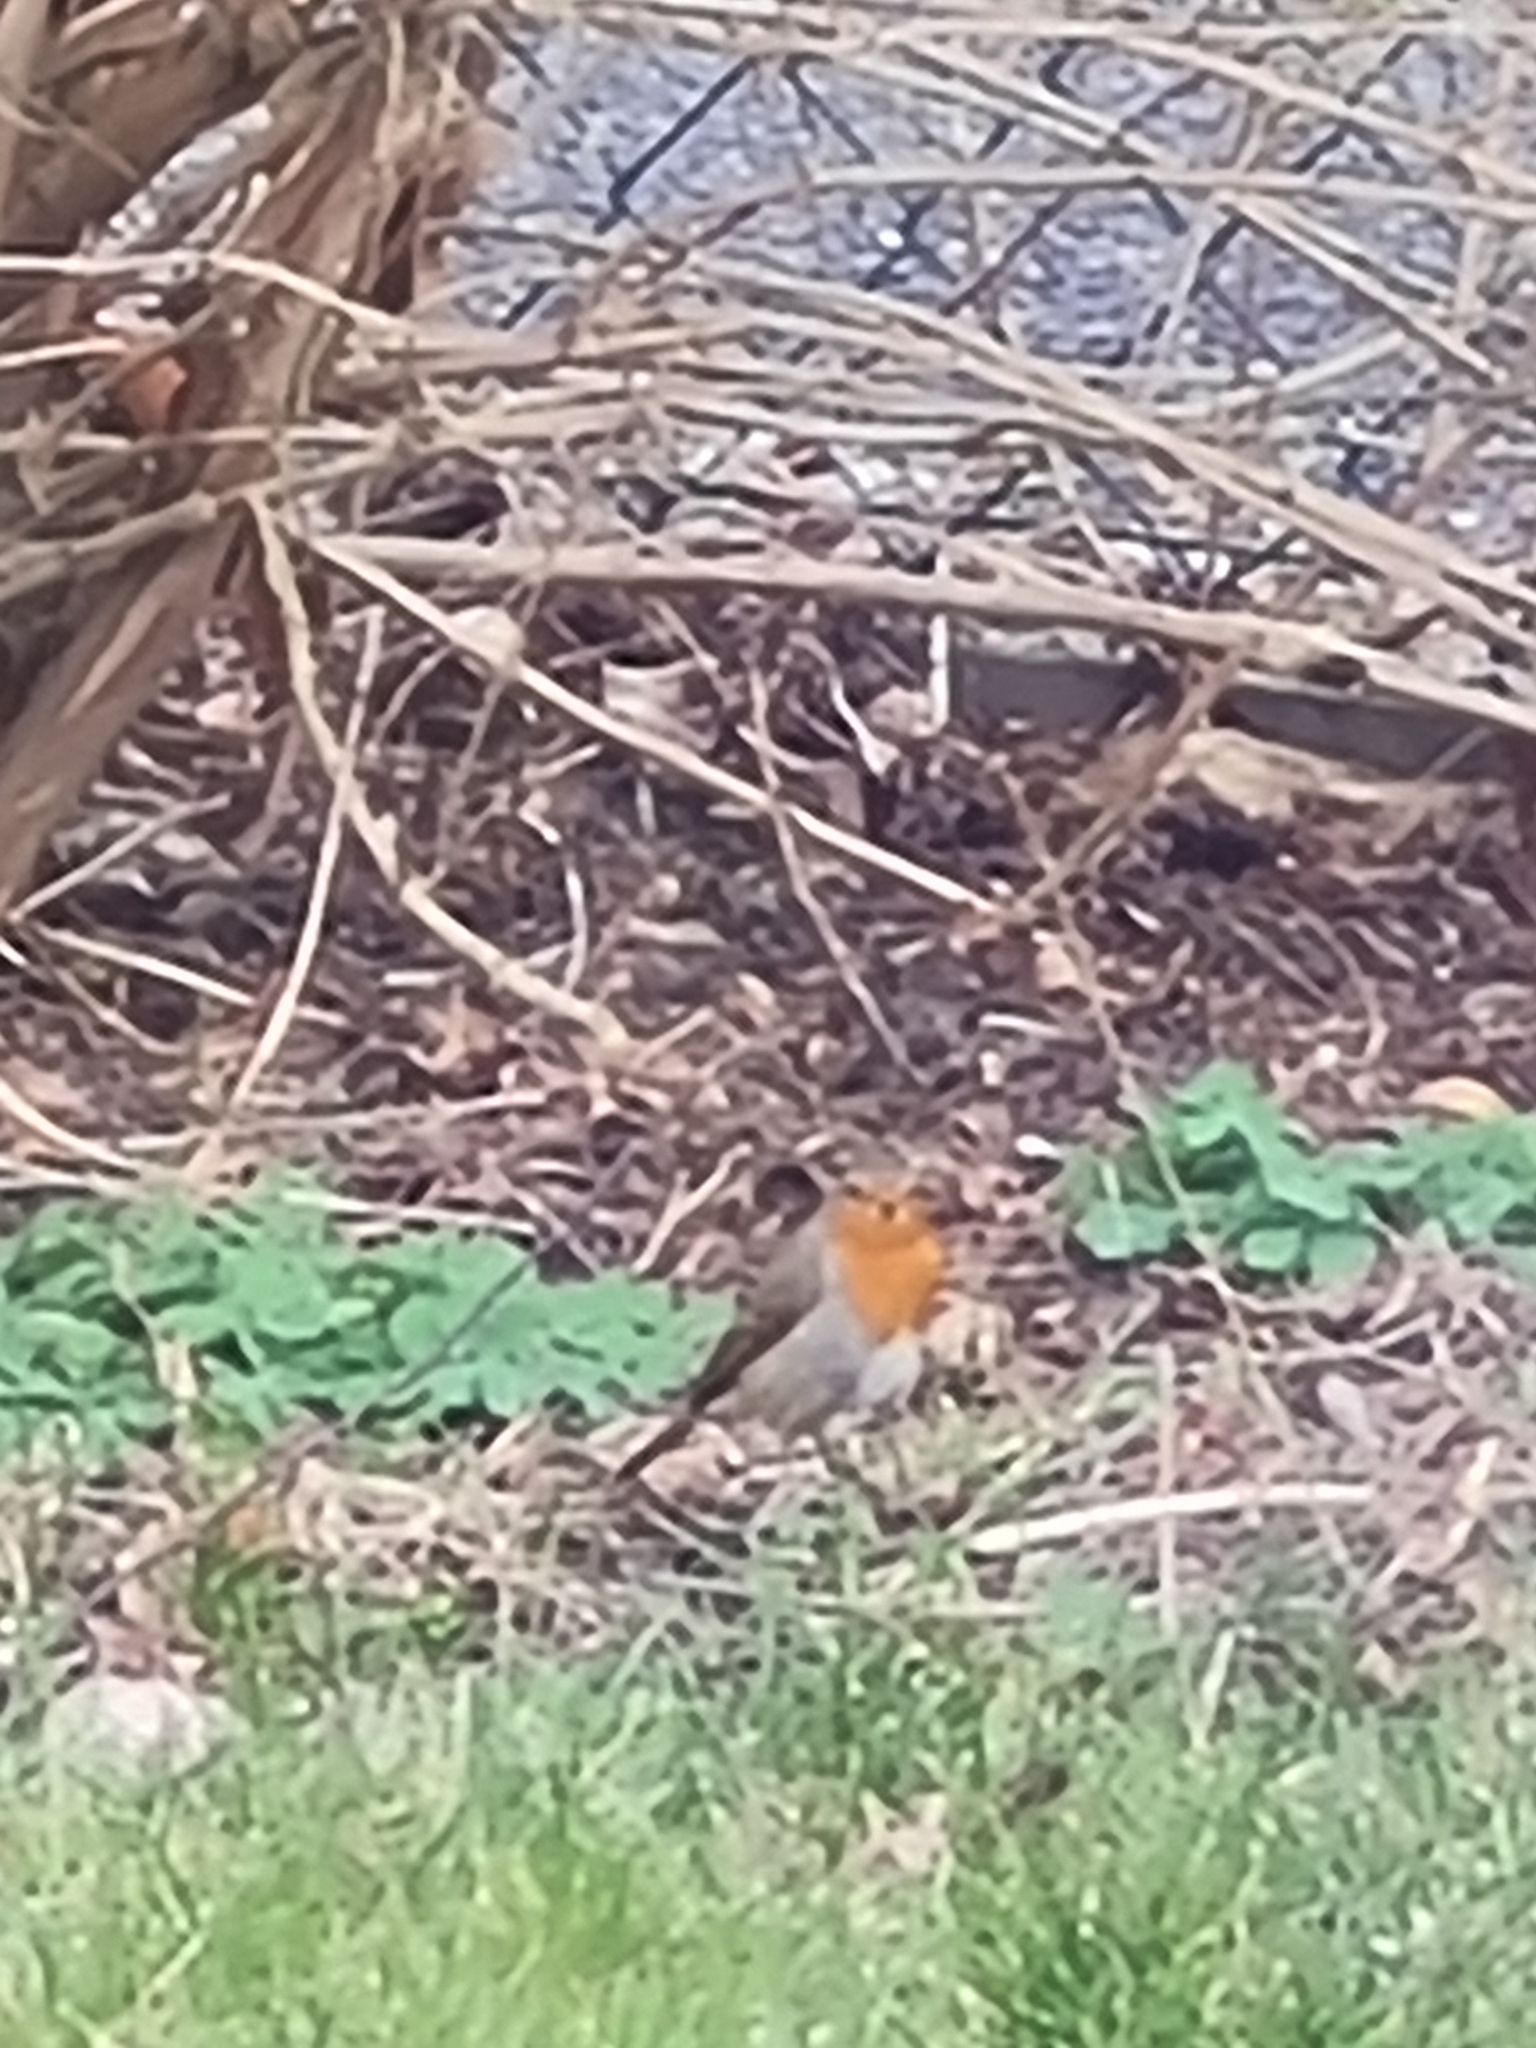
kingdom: Animalia
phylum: Chordata
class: Aves
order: Passeriformes
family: Muscicapidae
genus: Erithacus
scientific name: Erithacus rubecula
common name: European robin
